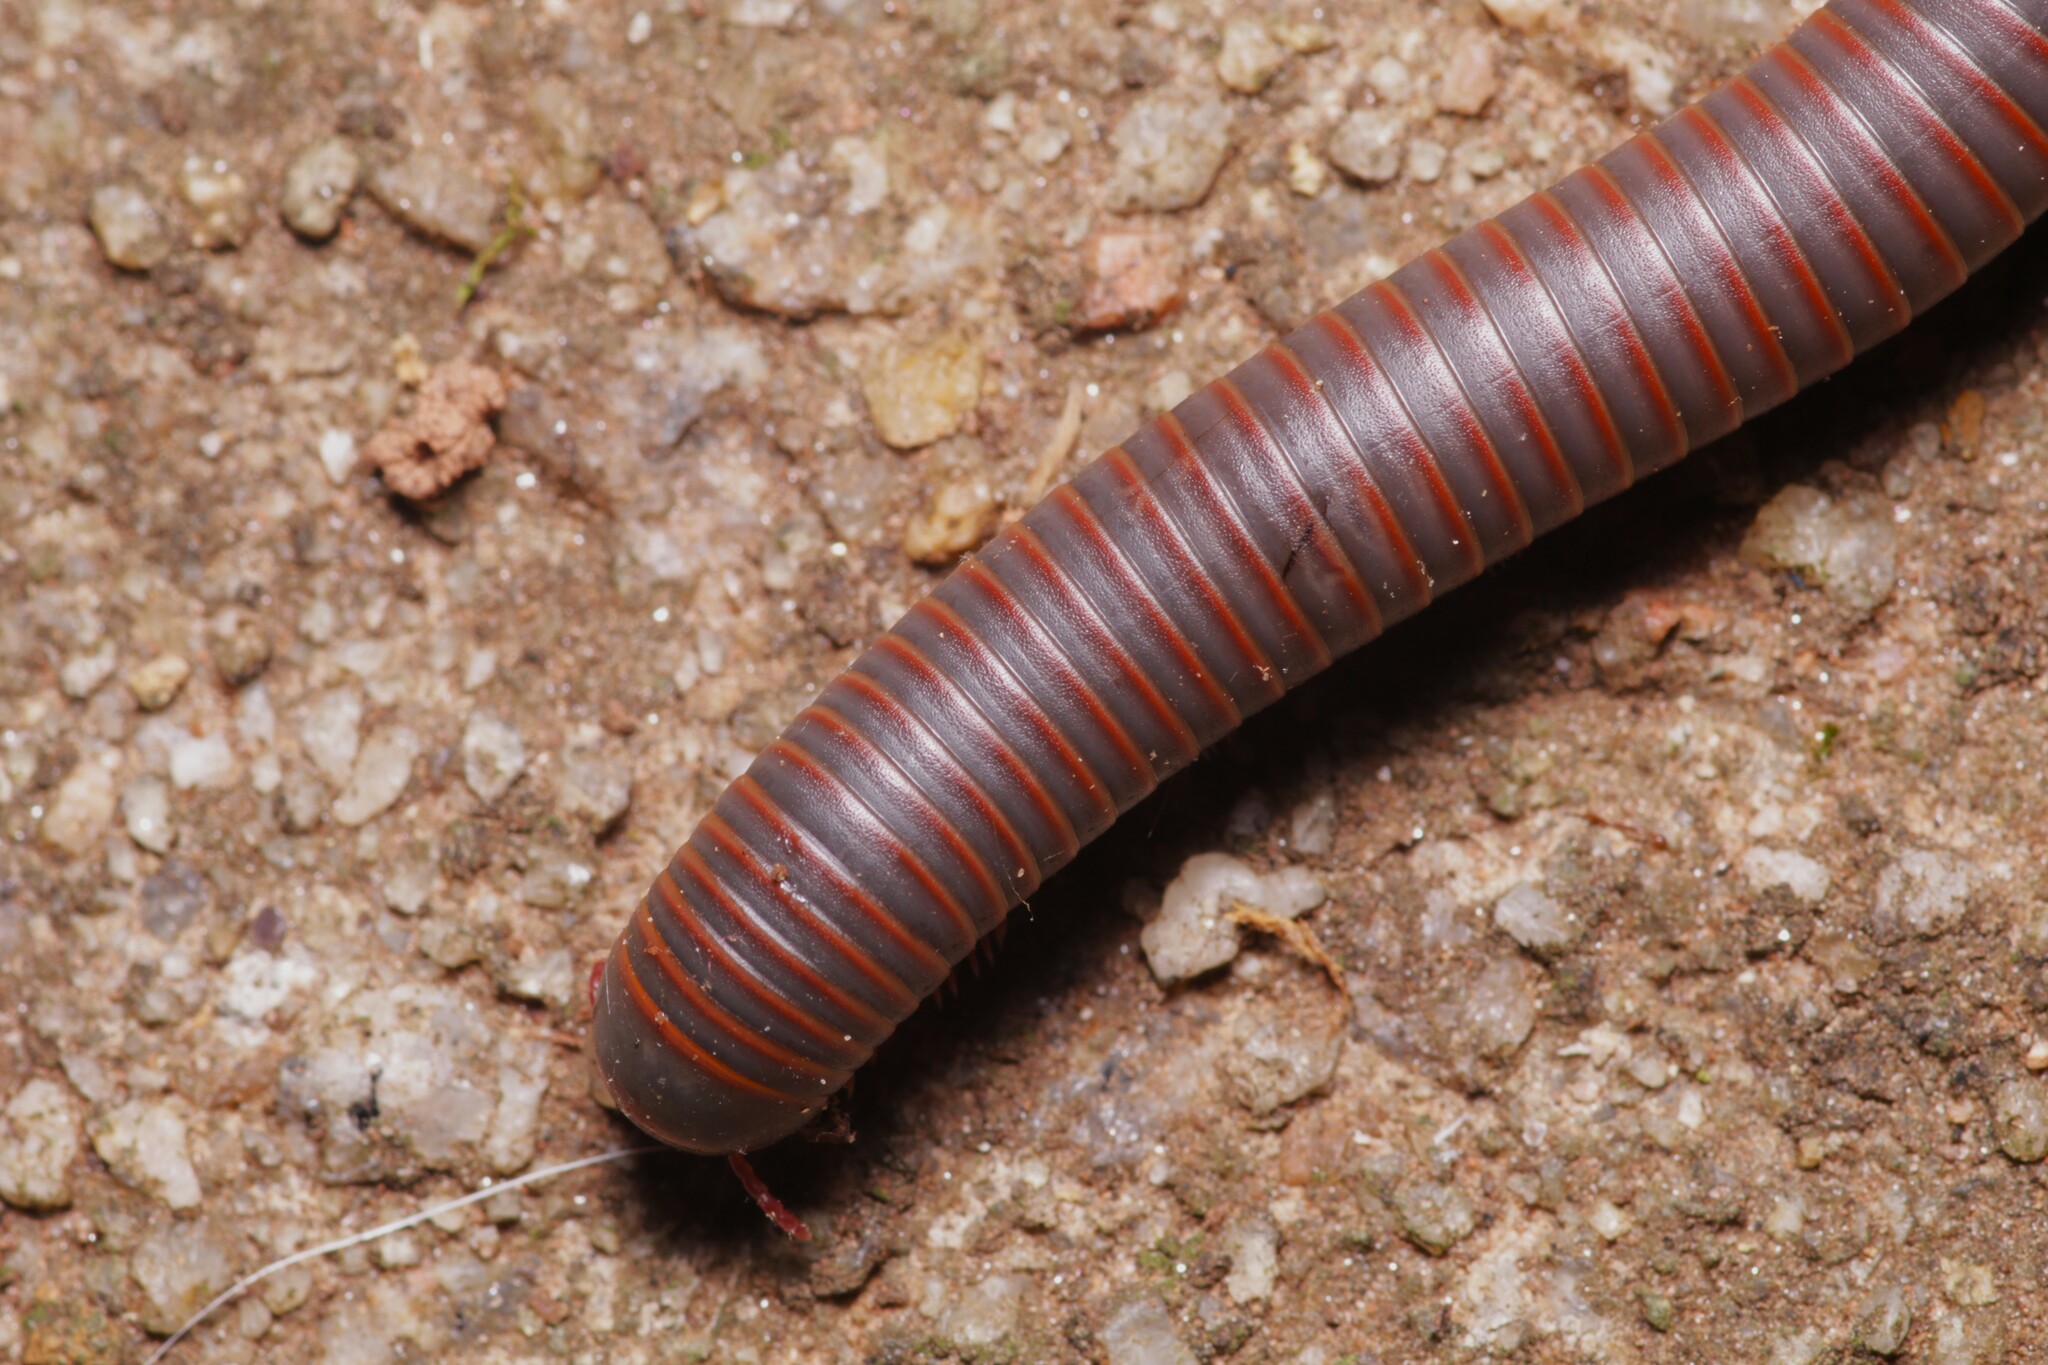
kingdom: Animalia
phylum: Arthropoda
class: Diplopoda
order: Spirobolida
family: Spirobolidae
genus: Narceus
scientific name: Narceus
